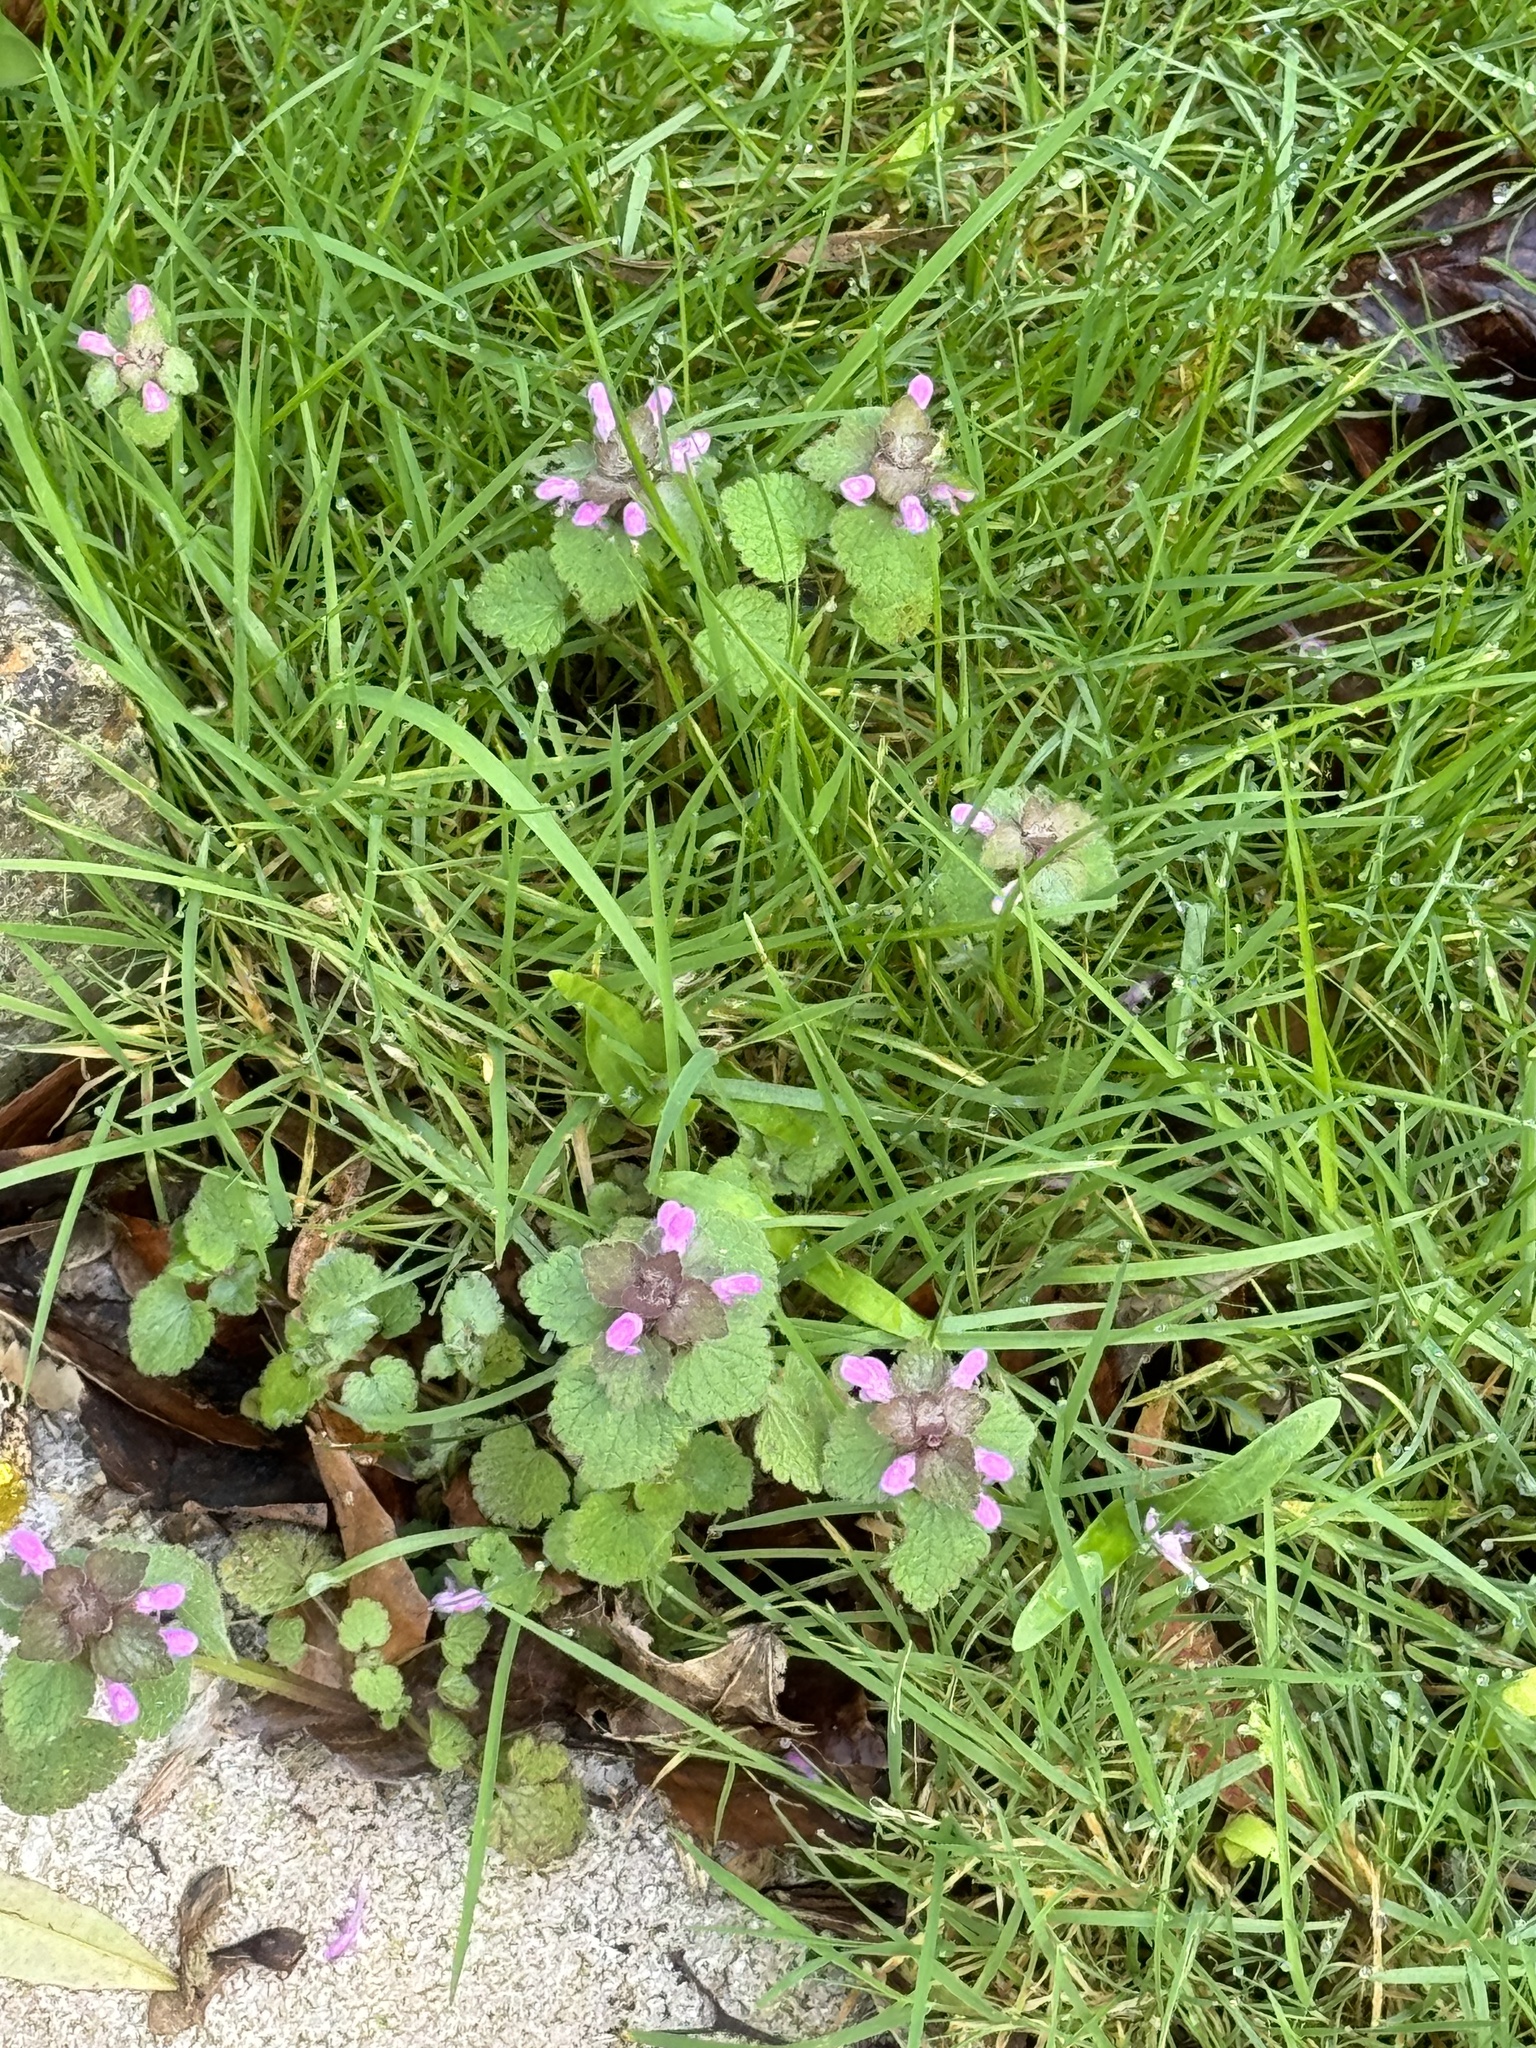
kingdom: Plantae
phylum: Tracheophyta
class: Magnoliopsida
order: Lamiales
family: Lamiaceae
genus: Lamium
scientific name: Lamium purpureum
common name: Red dead-nettle
